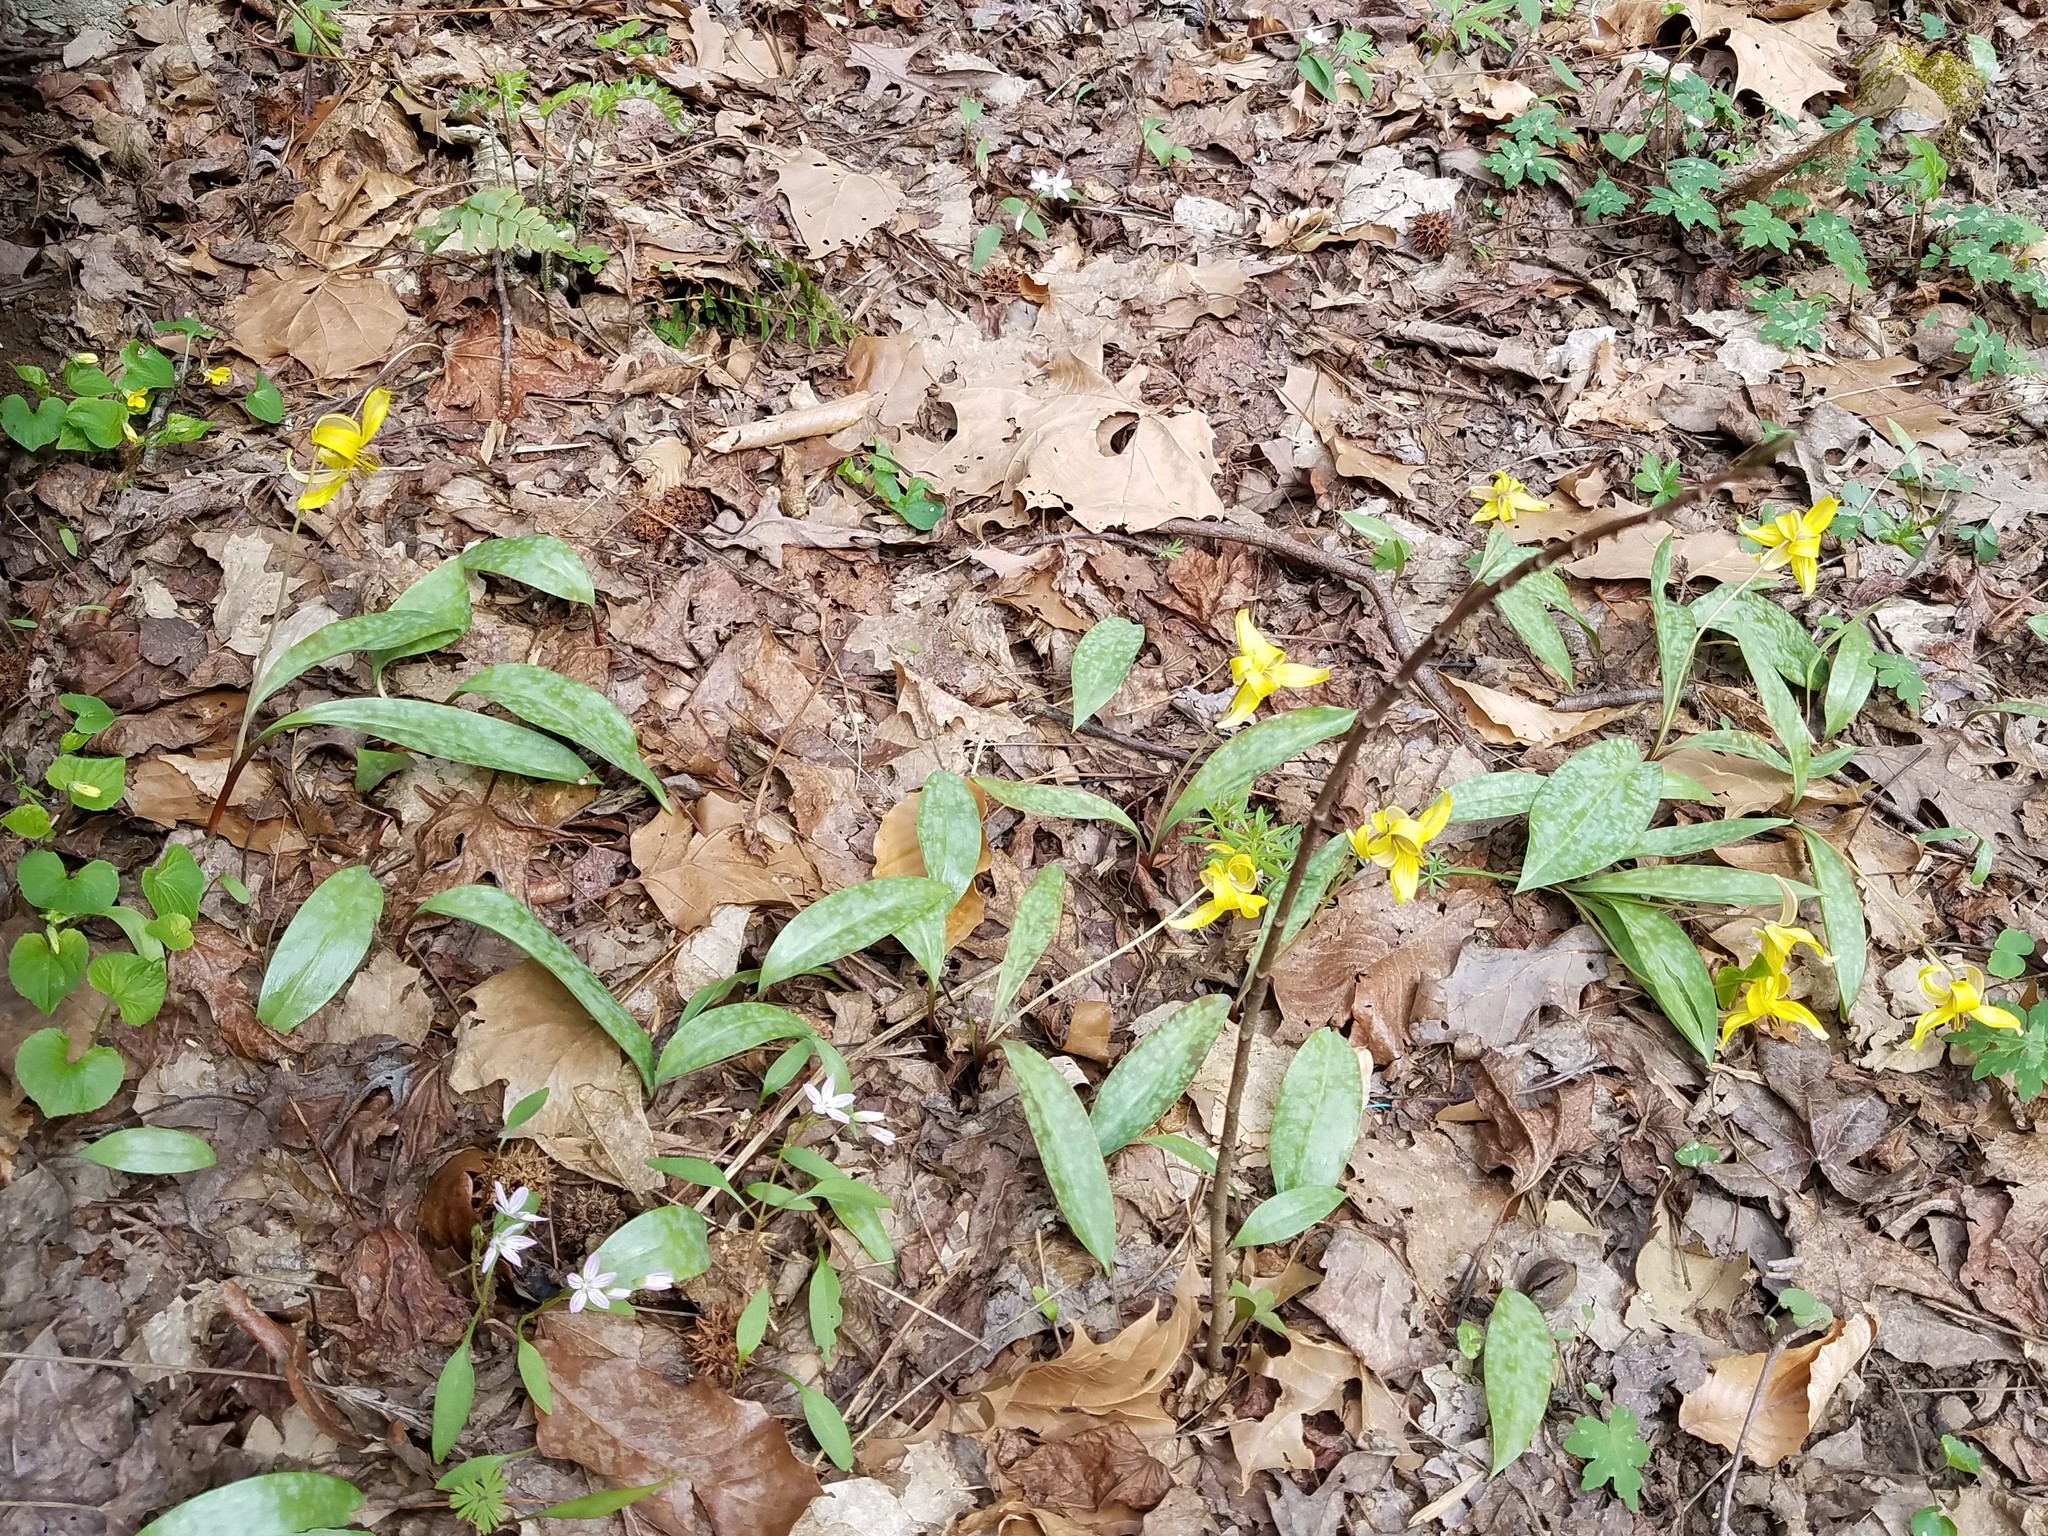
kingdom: Plantae
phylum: Tracheophyta
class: Liliopsida
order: Liliales
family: Liliaceae
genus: Erythronium
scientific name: Erythronium americanum
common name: Yellow adder's-tongue
